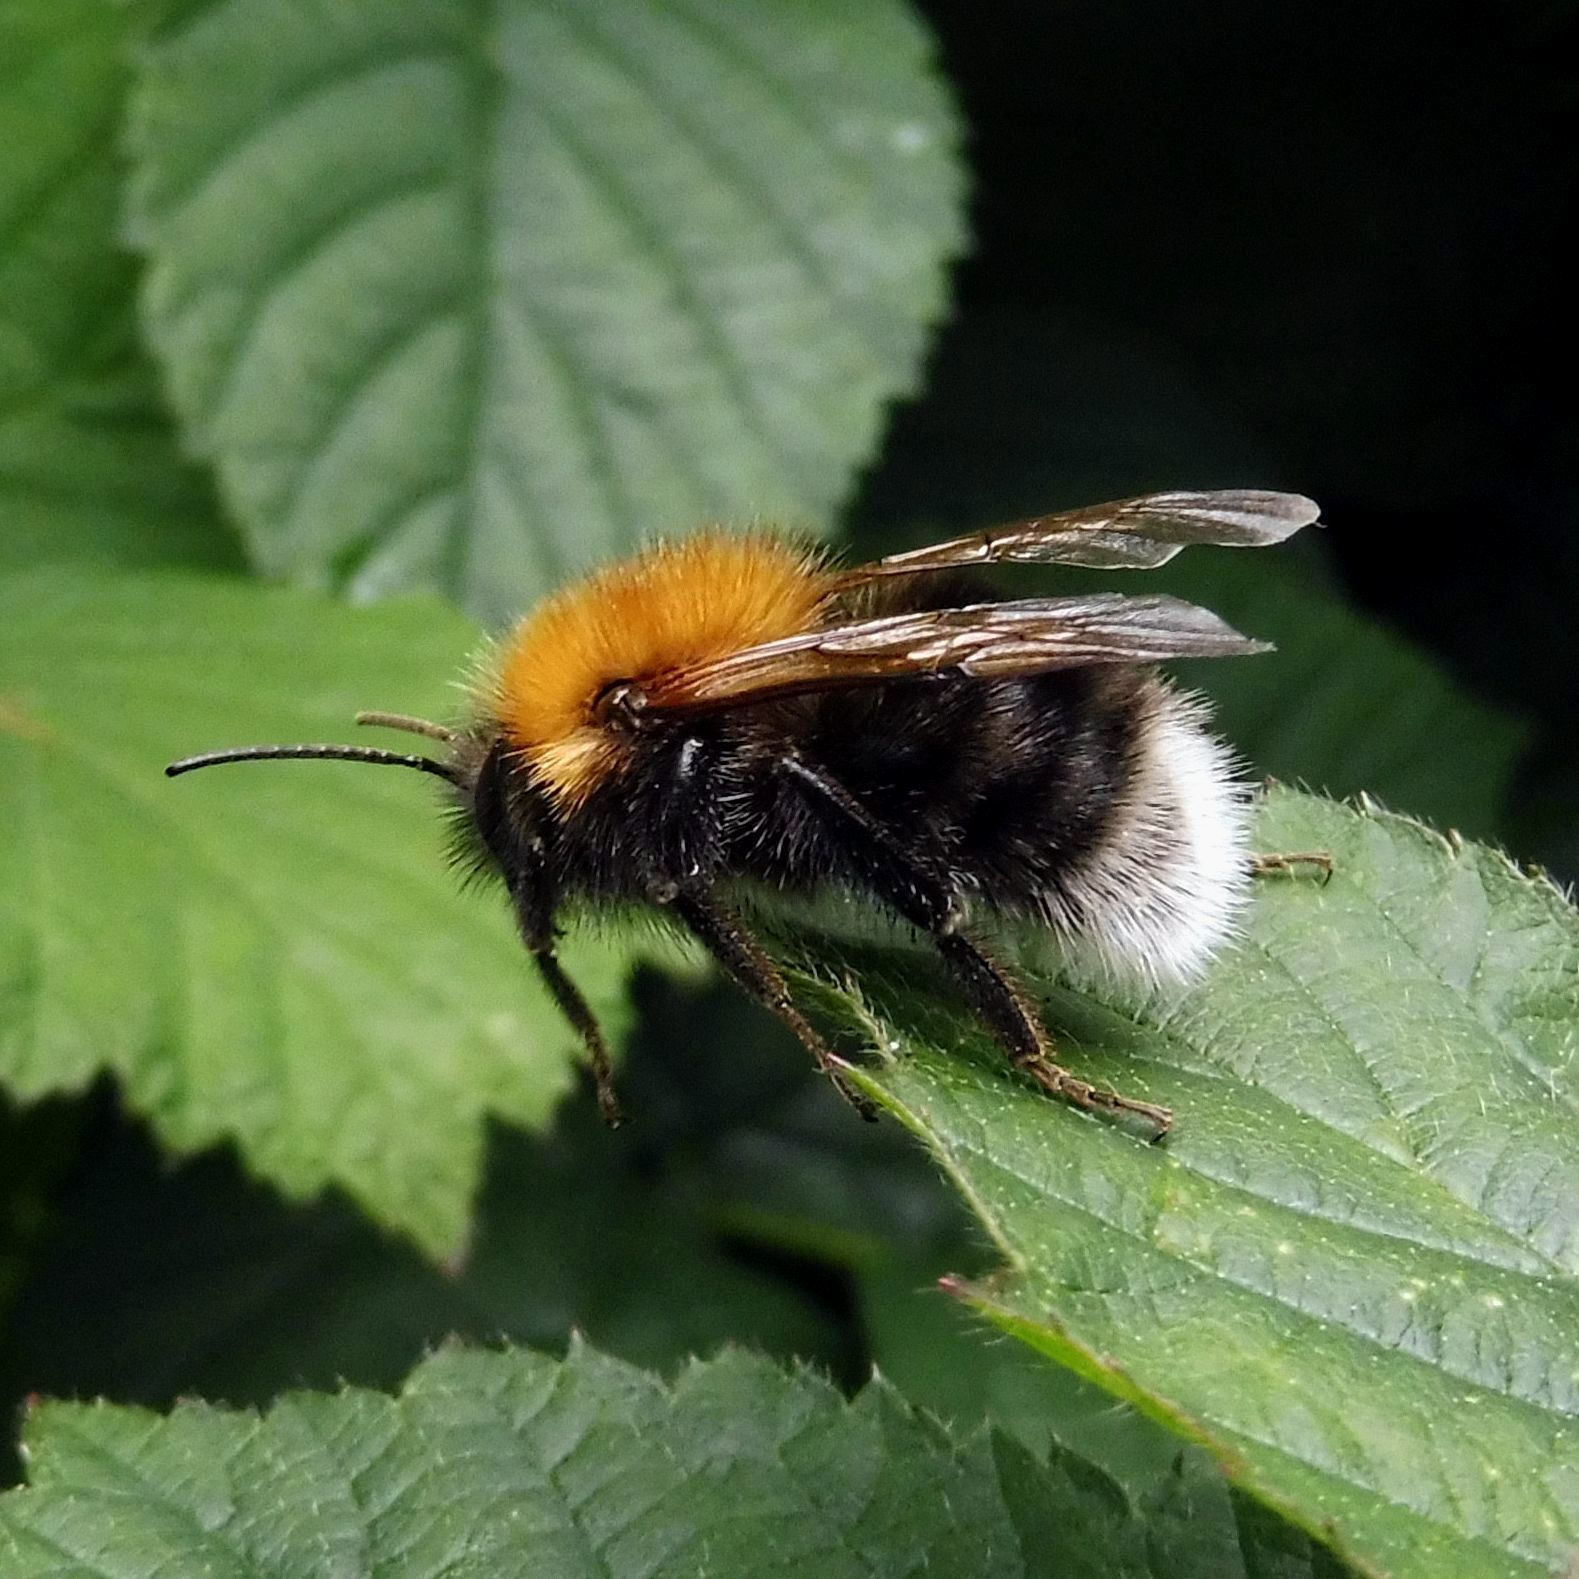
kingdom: Animalia
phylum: Arthropoda
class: Insecta
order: Hymenoptera
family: Apidae
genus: Bombus
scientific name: Bombus hypnorum
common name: New garden bumblebee
